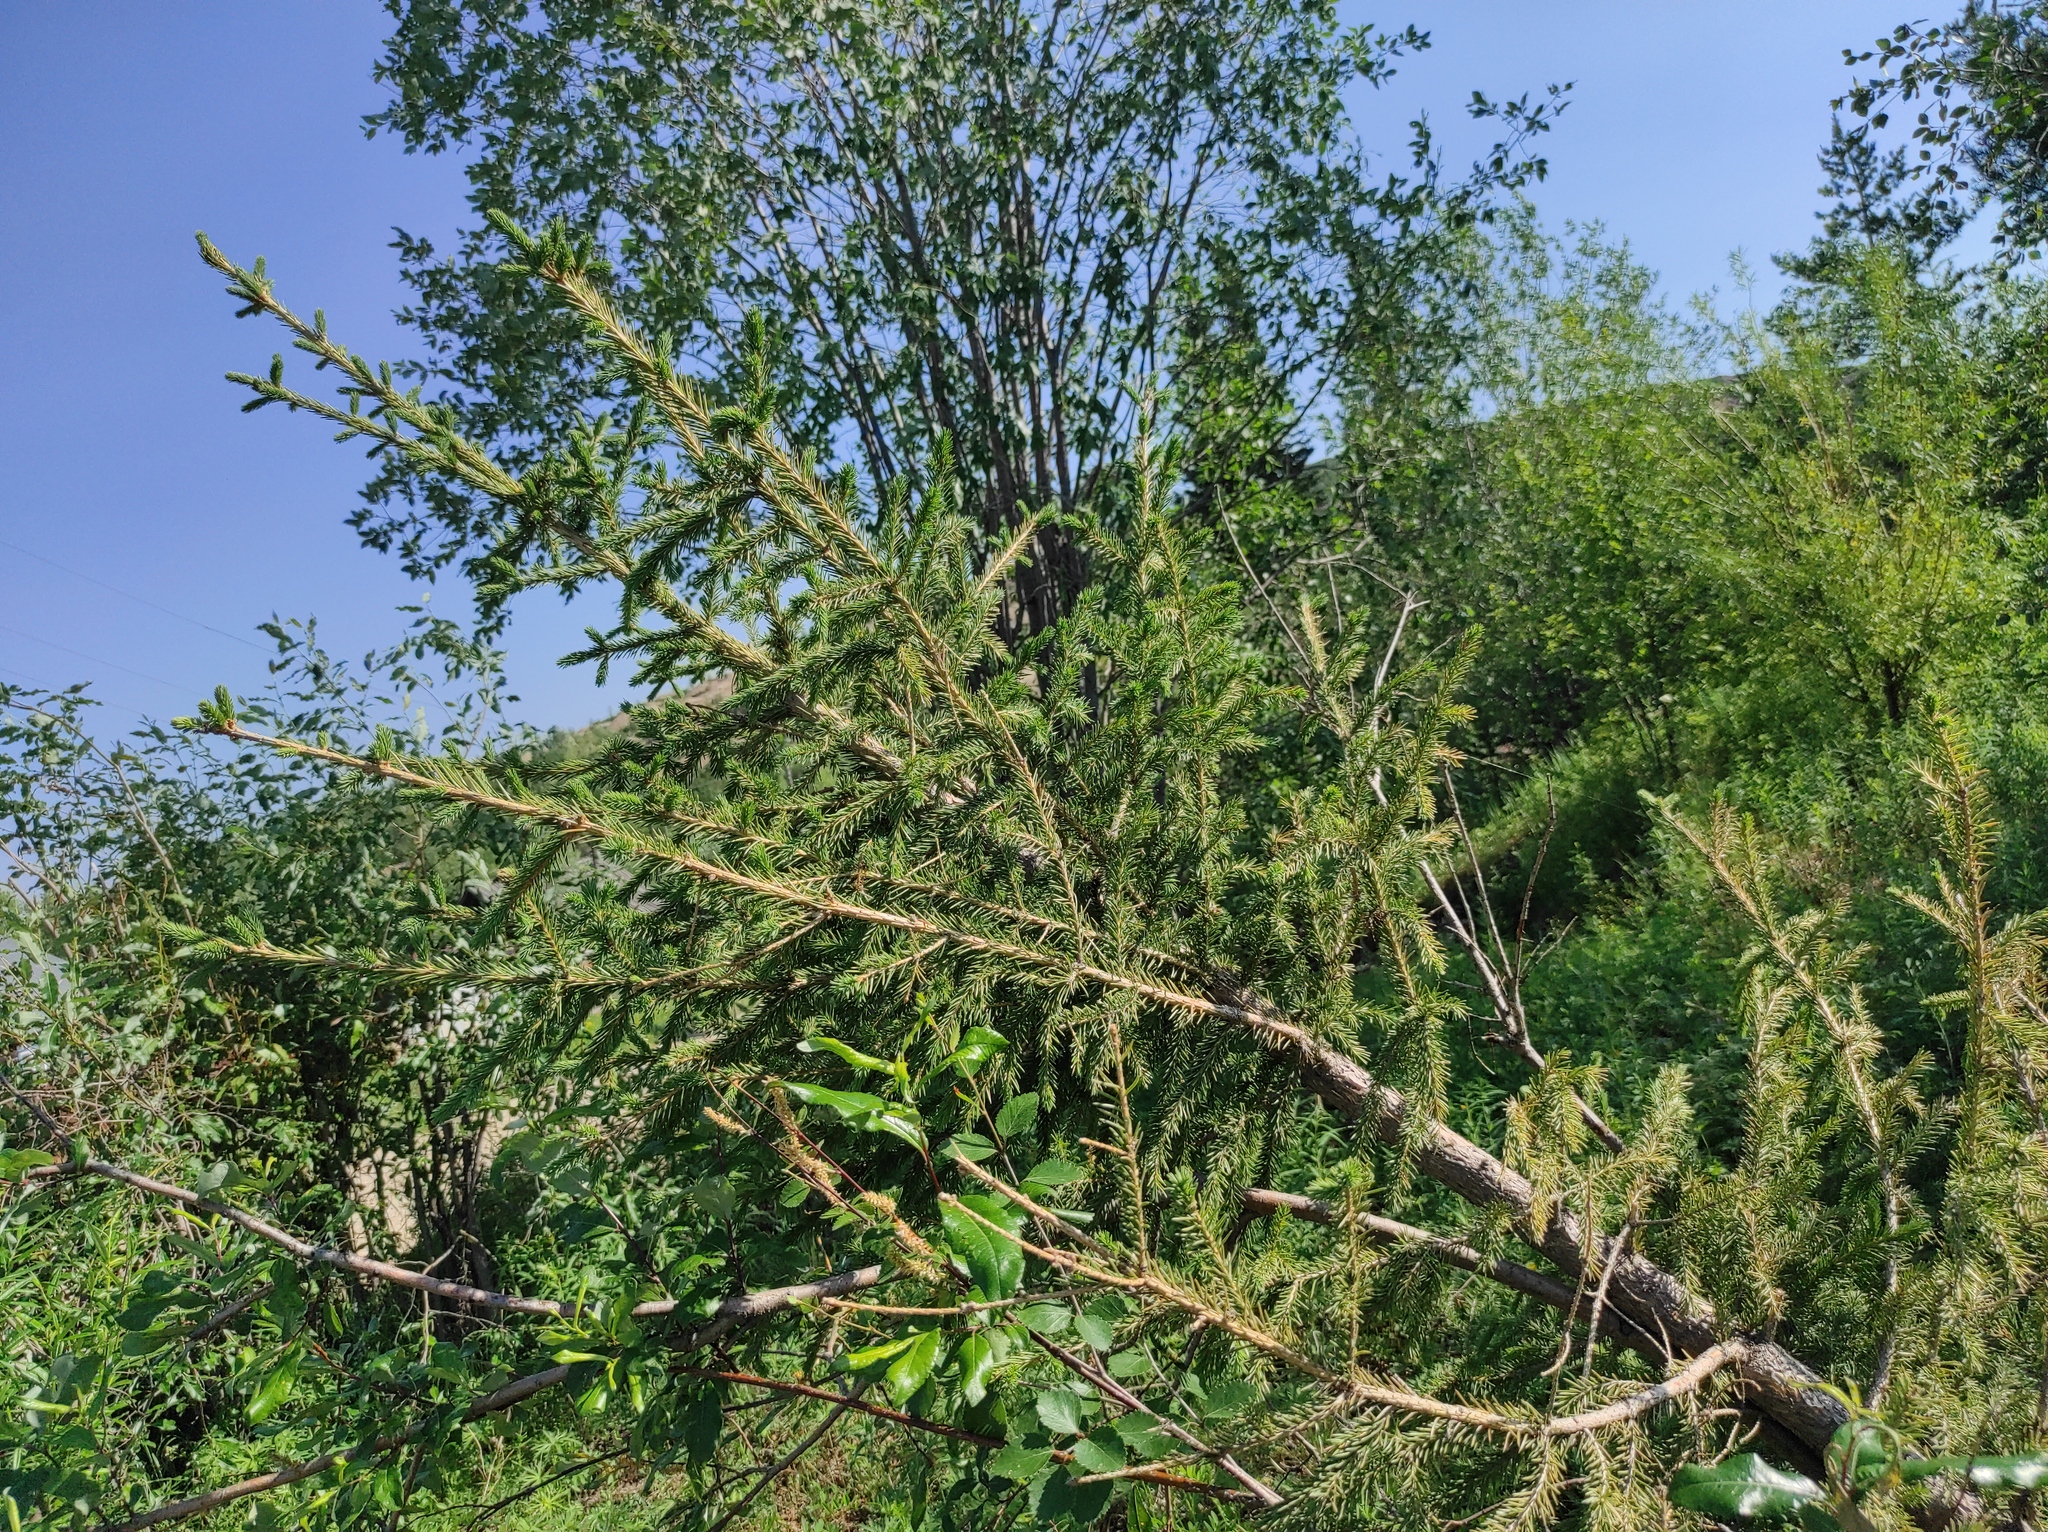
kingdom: Plantae
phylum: Tracheophyta
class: Pinopsida
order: Pinales
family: Pinaceae
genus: Picea
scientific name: Picea obovata
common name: Siberian spruce
